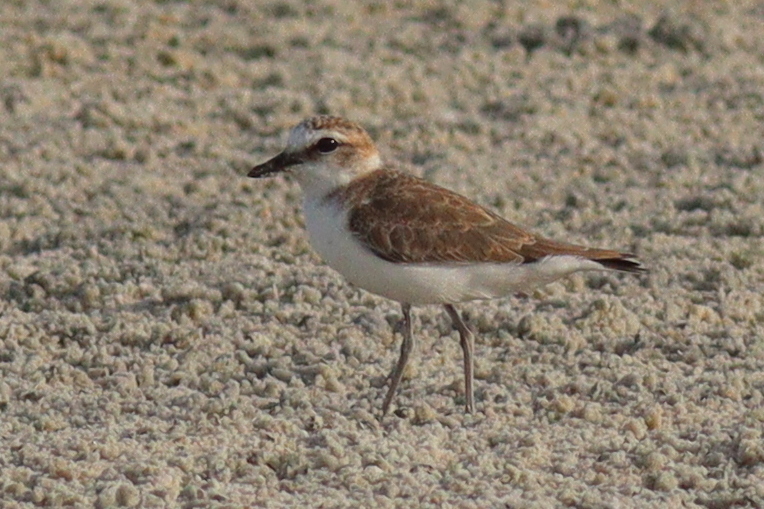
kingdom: Animalia
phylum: Chordata
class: Aves
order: Charadriiformes
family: Charadriidae
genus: Anarhynchus
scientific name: Anarhynchus
